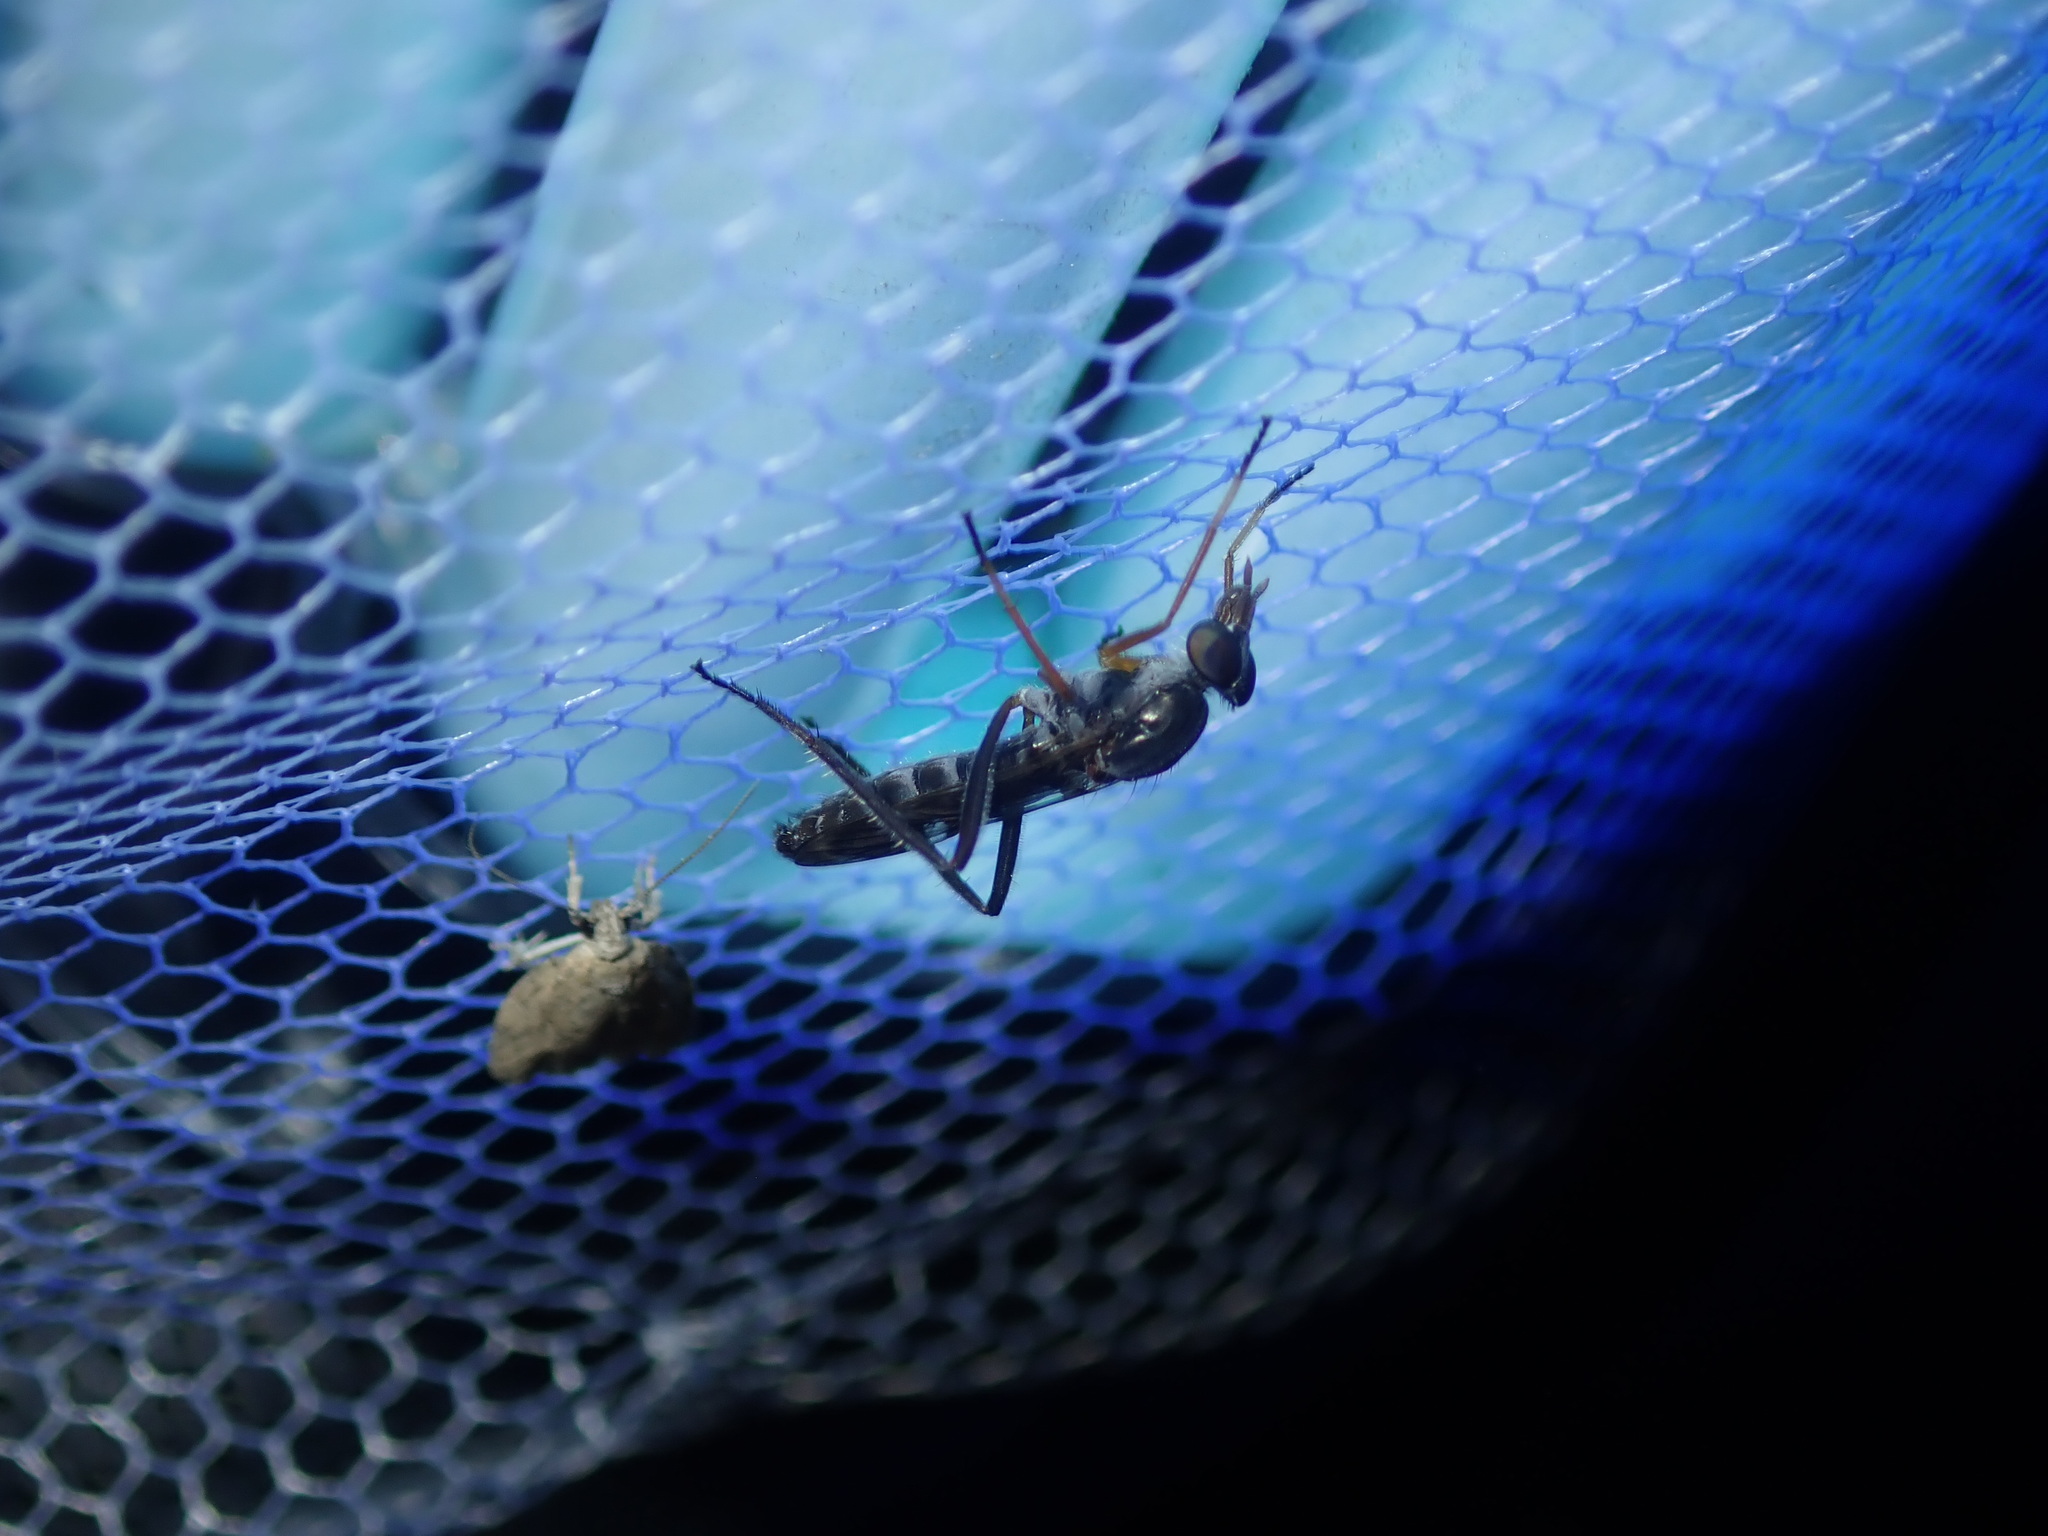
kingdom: Animalia
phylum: Arthropoda
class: Insecta
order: Diptera
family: Therevidae
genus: Ectinorhynchus
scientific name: Ectinorhynchus terminalis
